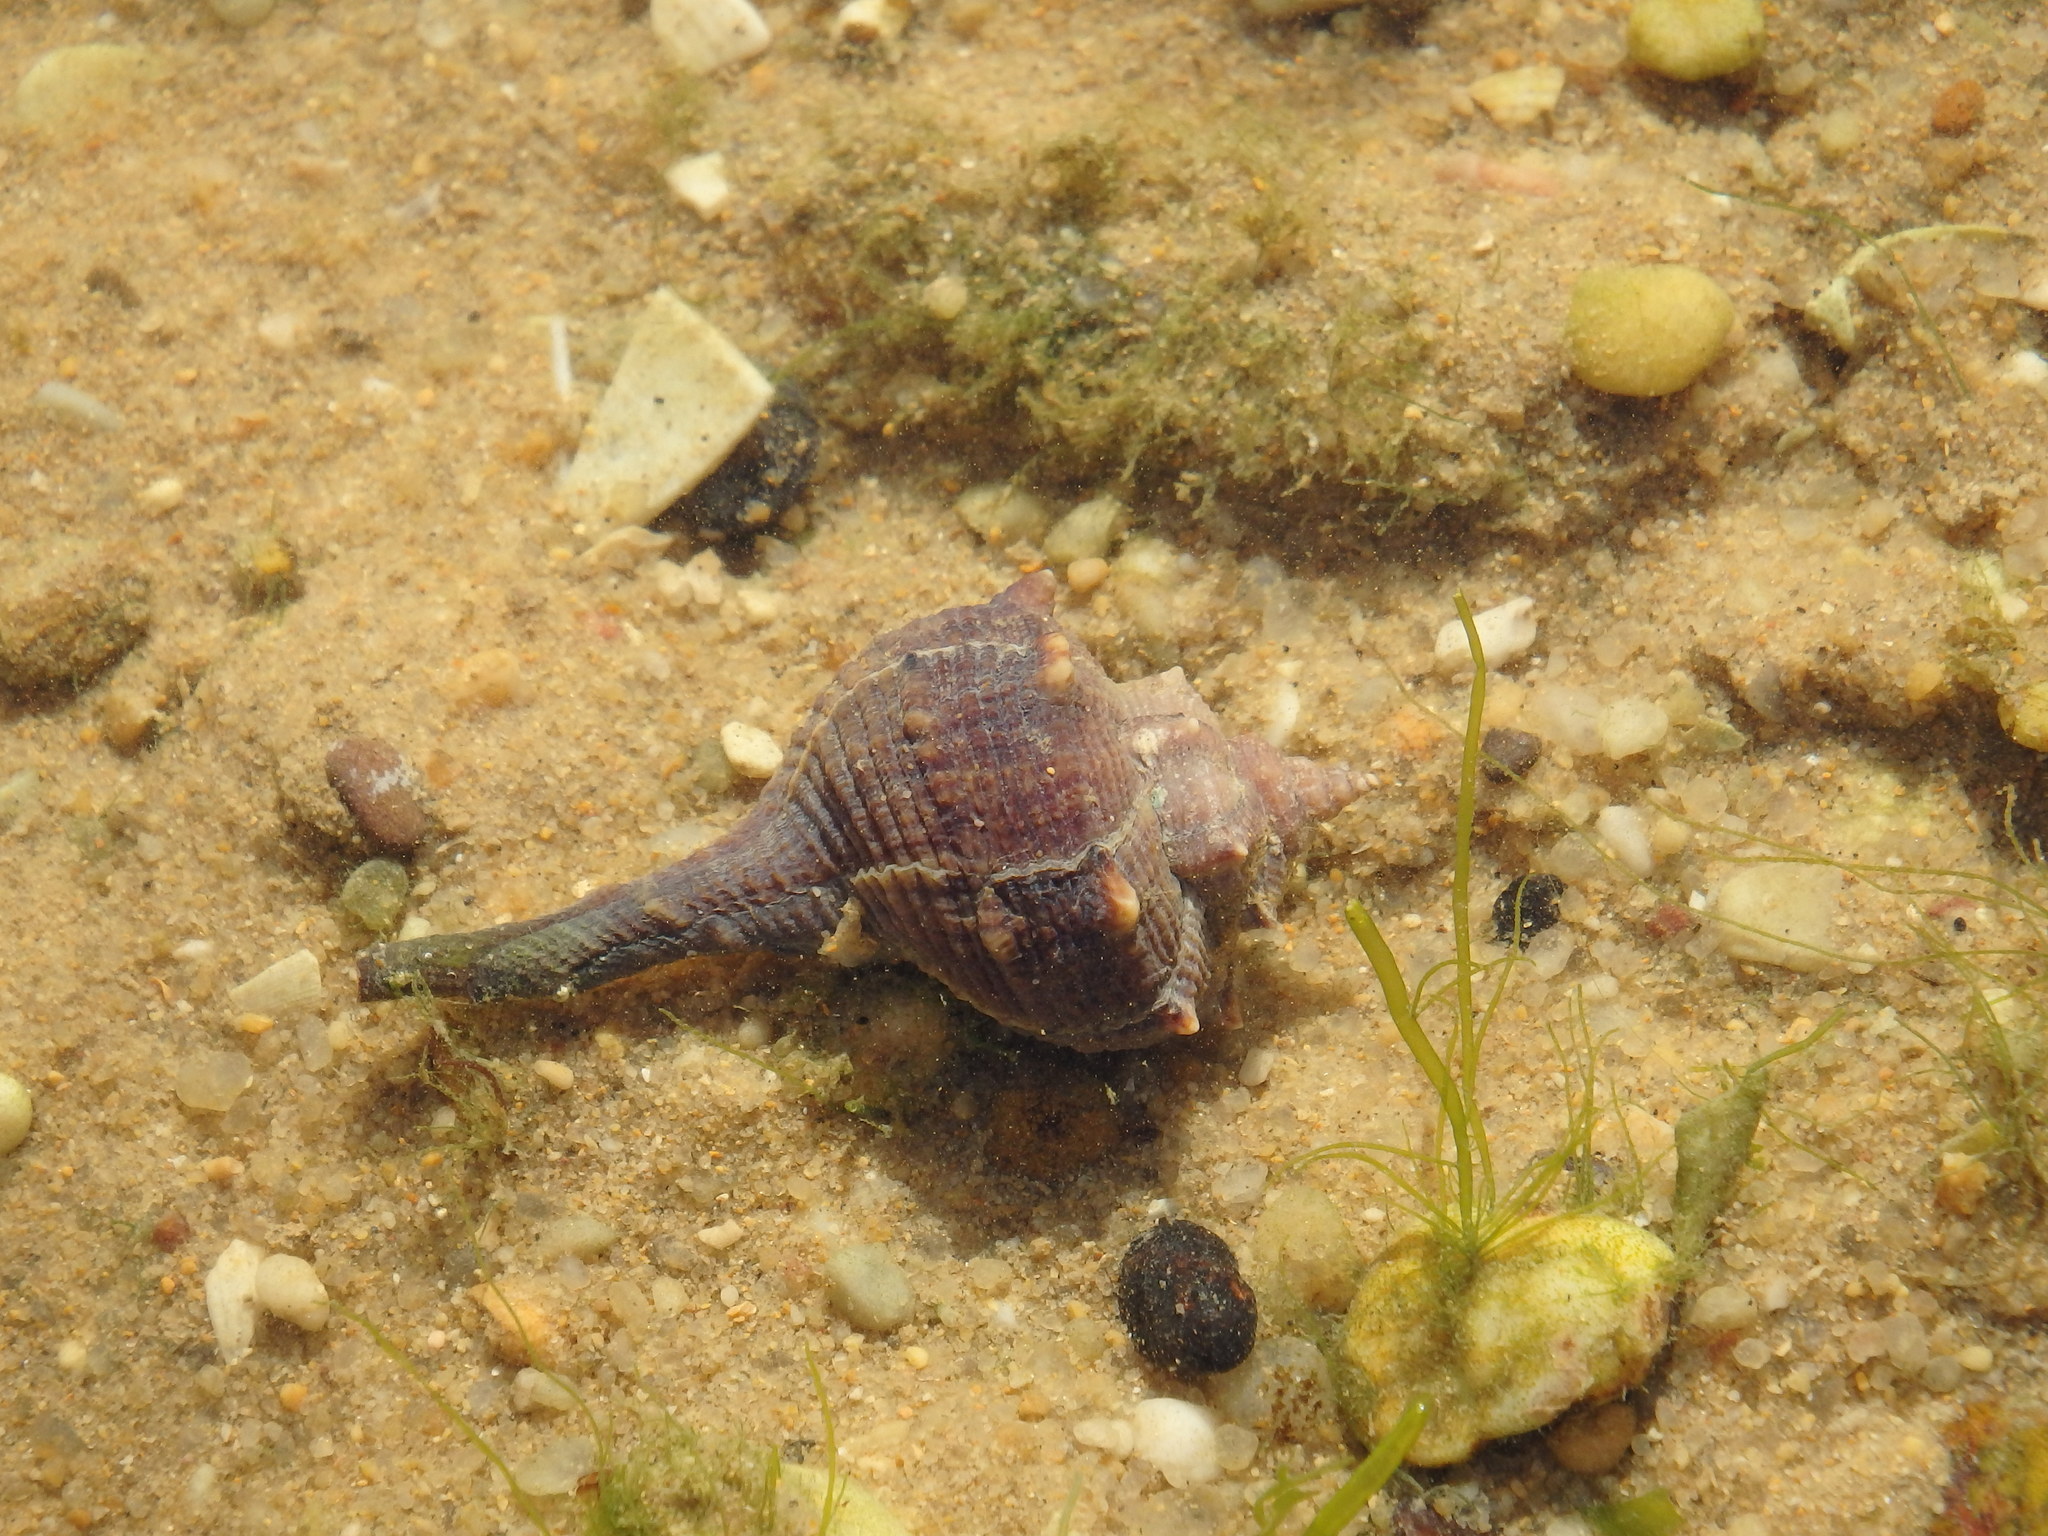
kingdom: Animalia
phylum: Mollusca
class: Gastropoda
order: Neogastropoda
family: Muricidae
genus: Bolinus
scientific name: Bolinus brandaris
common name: Dye murex
